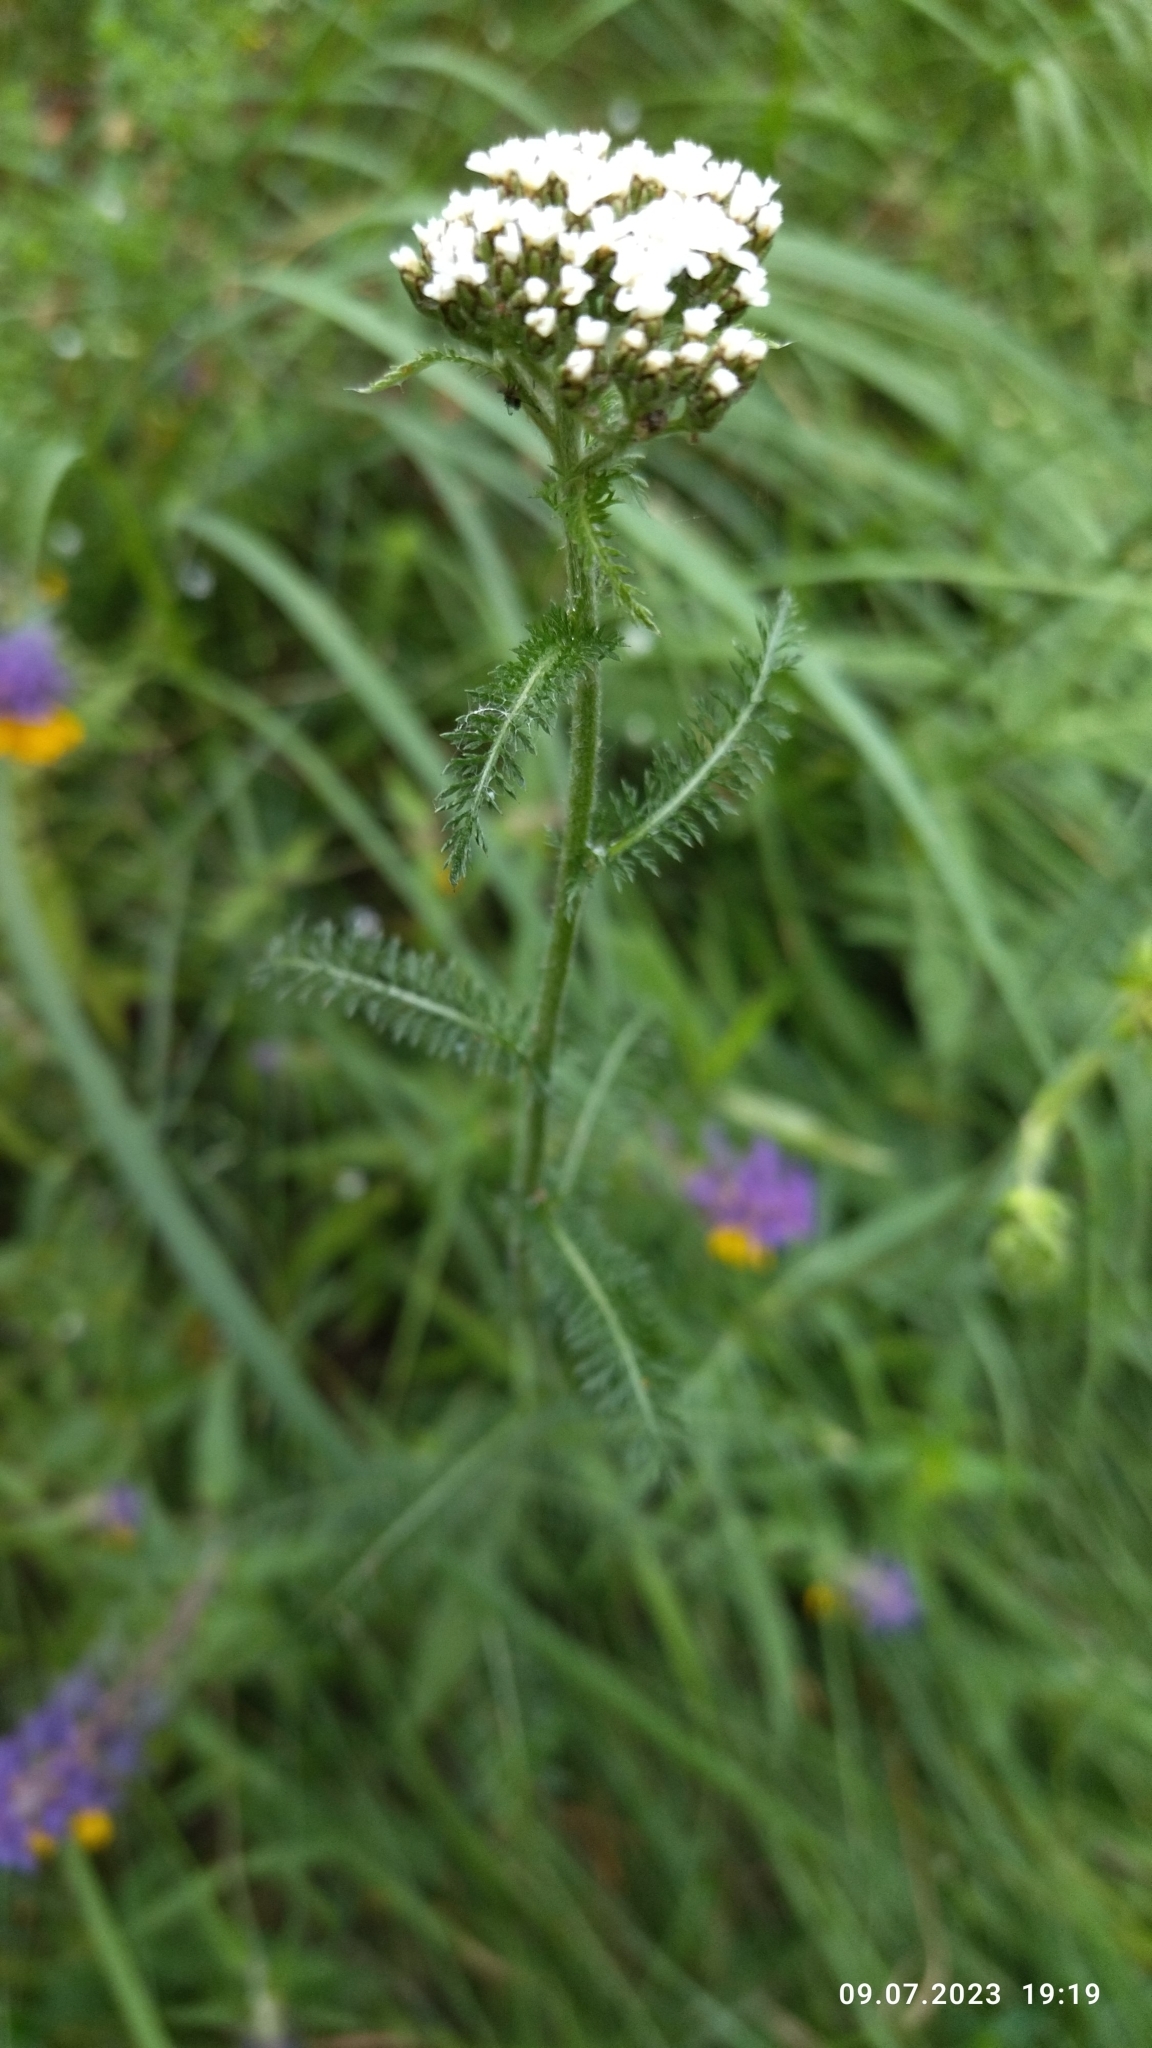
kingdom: Plantae
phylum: Tracheophyta
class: Magnoliopsida
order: Asterales
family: Asteraceae
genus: Achillea
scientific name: Achillea millefolium
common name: Yarrow
